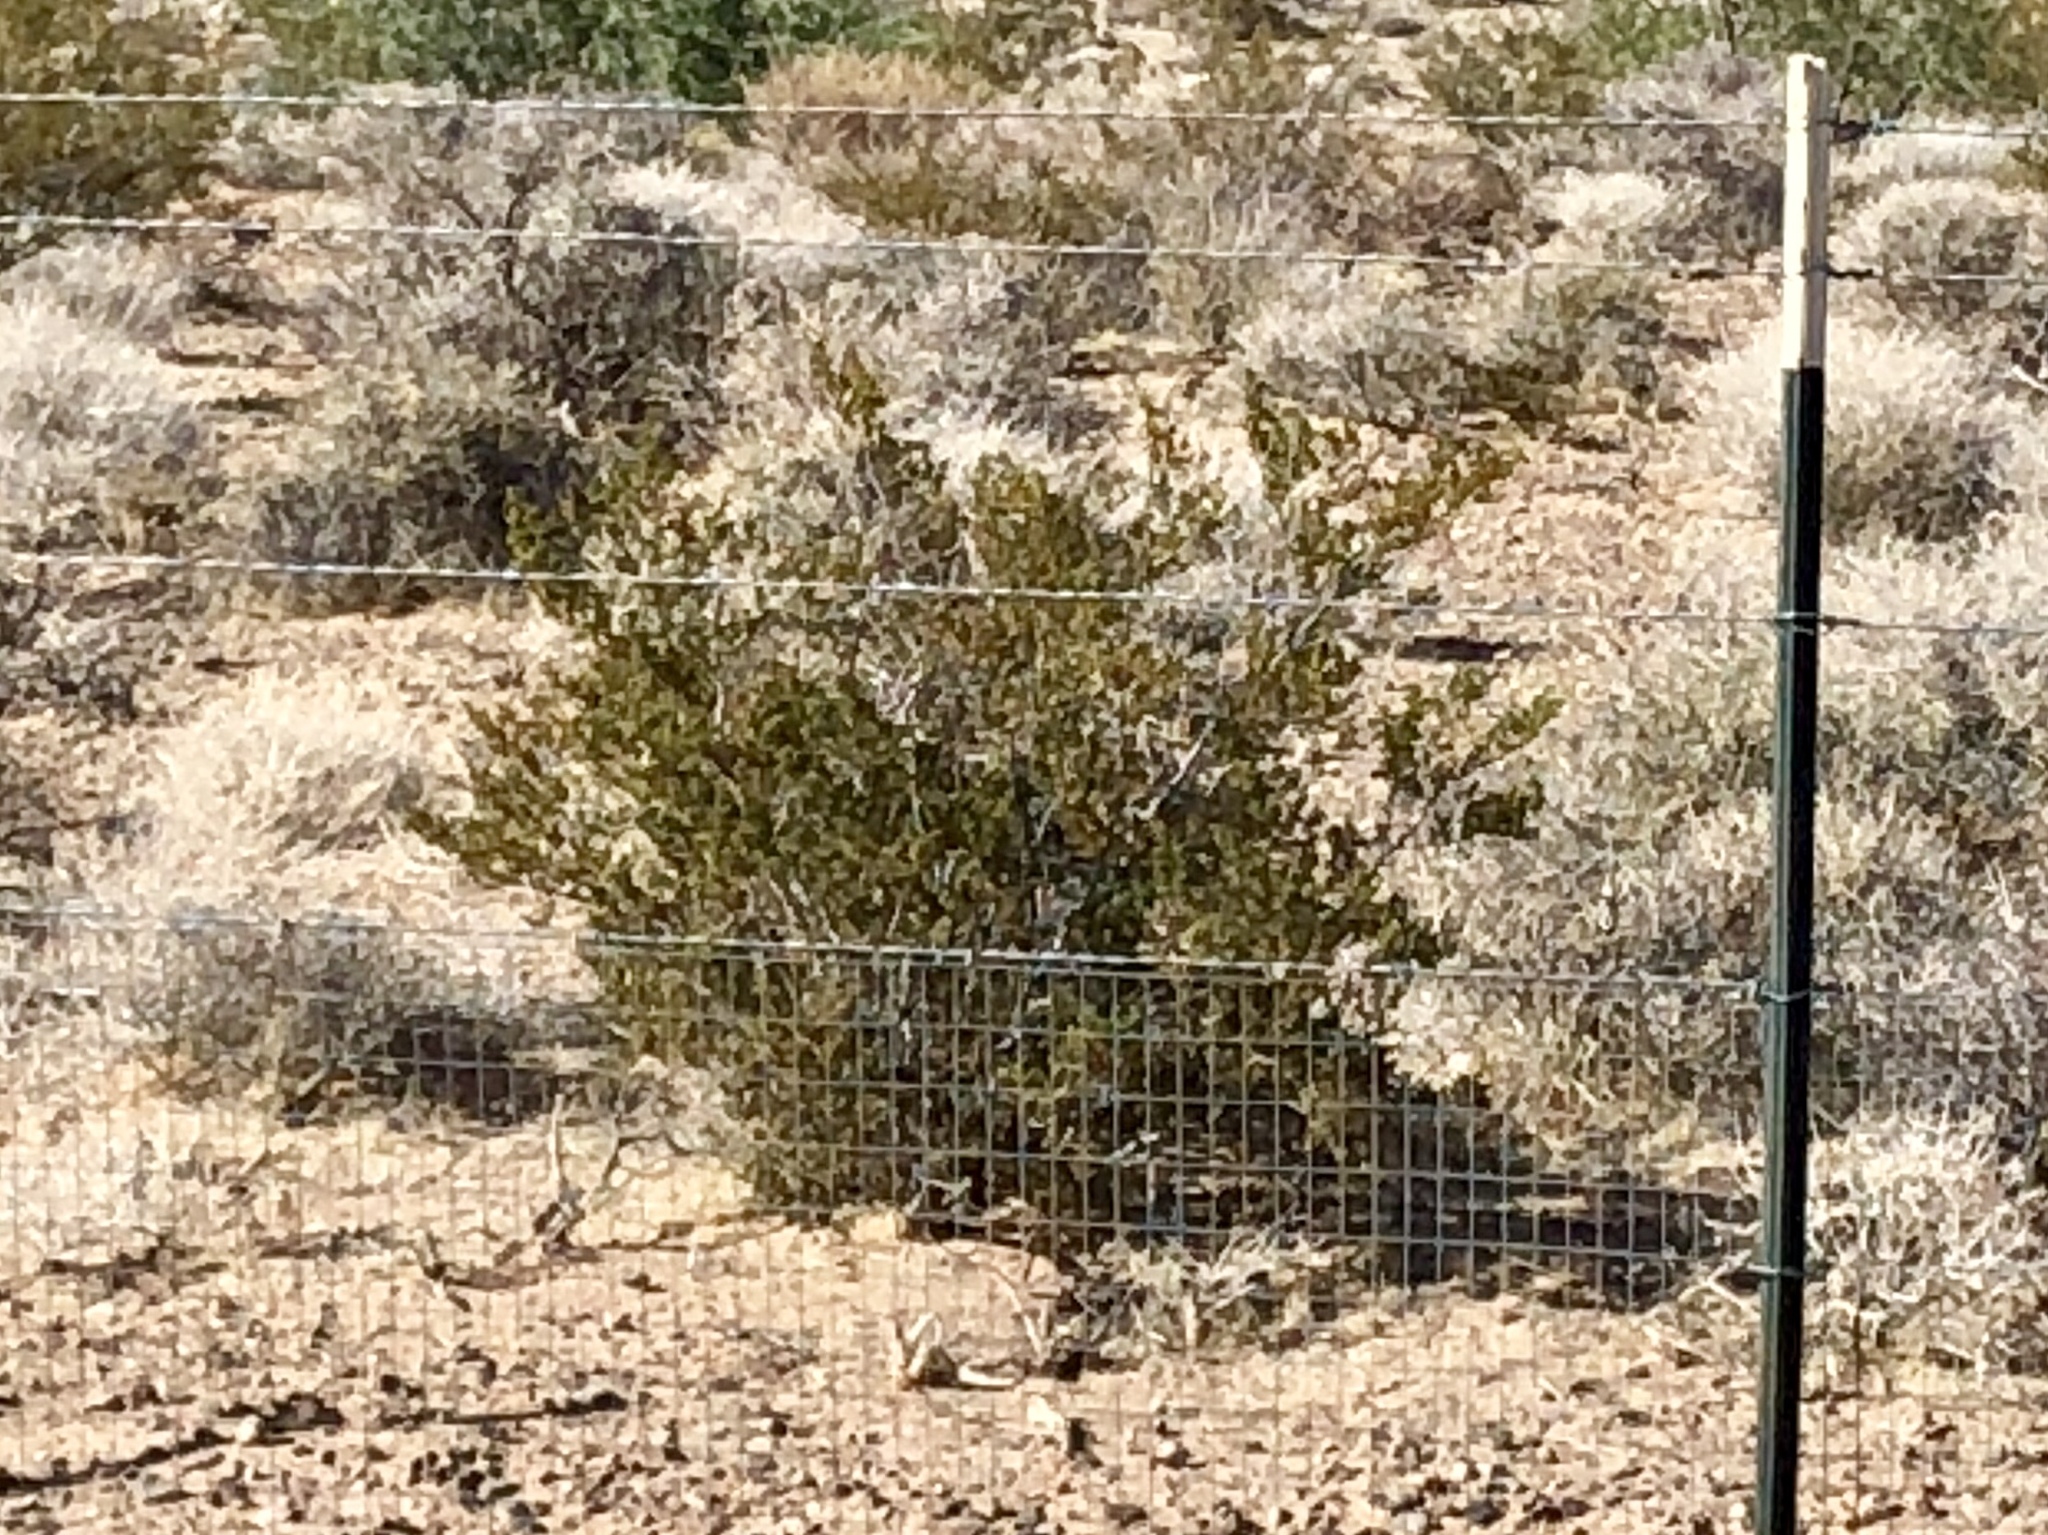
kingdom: Plantae
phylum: Tracheophyta
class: Magnoliopsida
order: Zygophyllales
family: Zygophyllaceae
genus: Larrea
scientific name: Larrea tridentata
